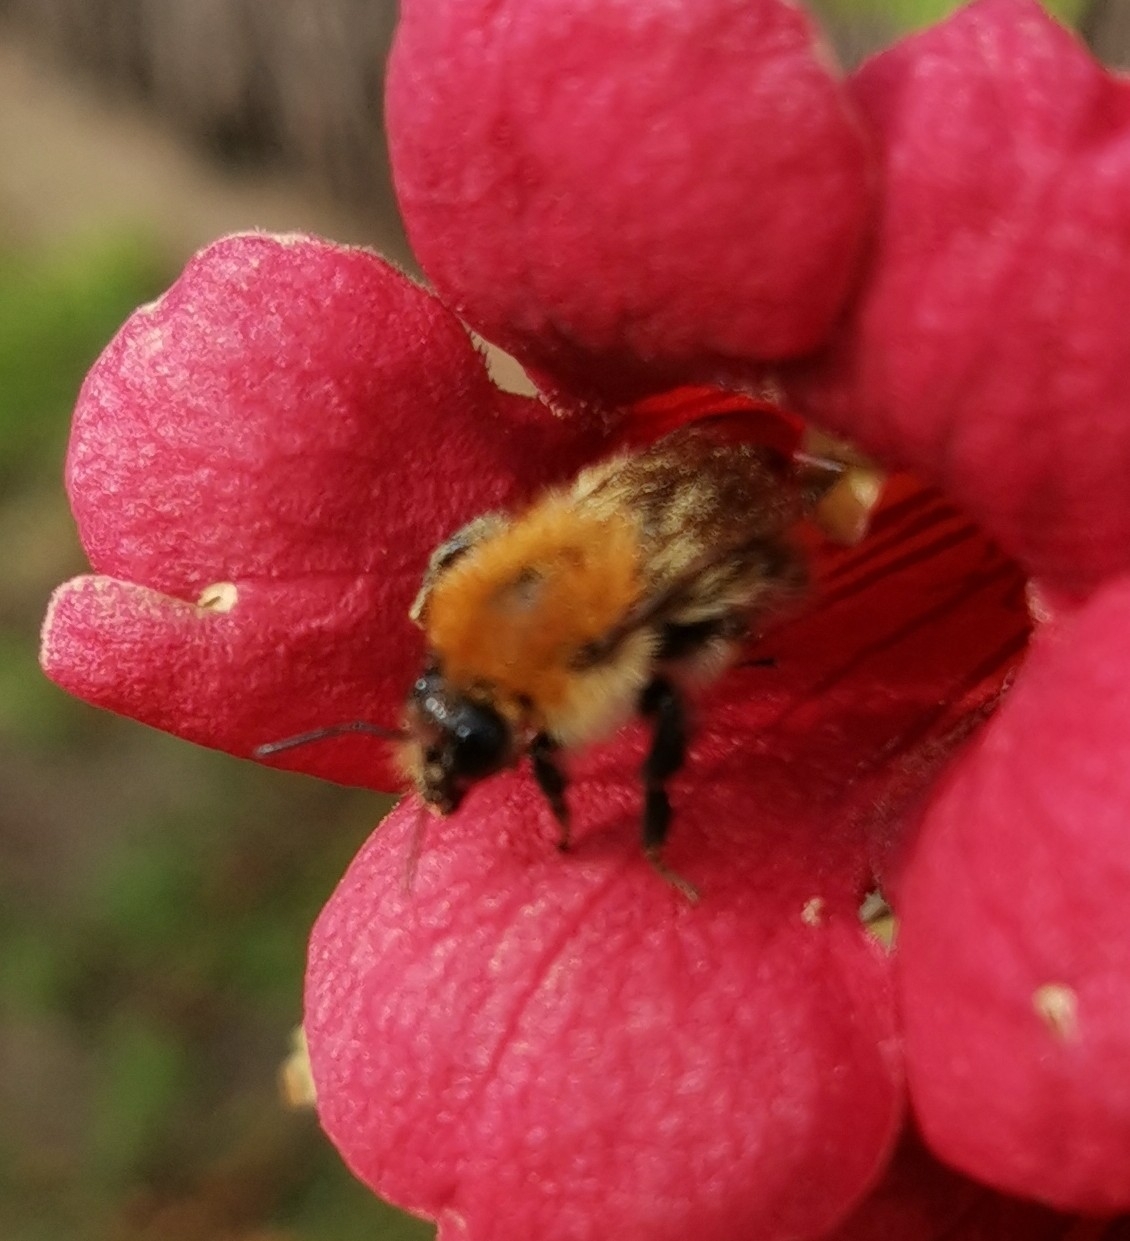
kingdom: Animalia
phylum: Arthropoda
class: Insecta
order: Hymenoptera
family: Apidae
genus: Bombus
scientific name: Bombus pascuorum
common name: Common carder bee
